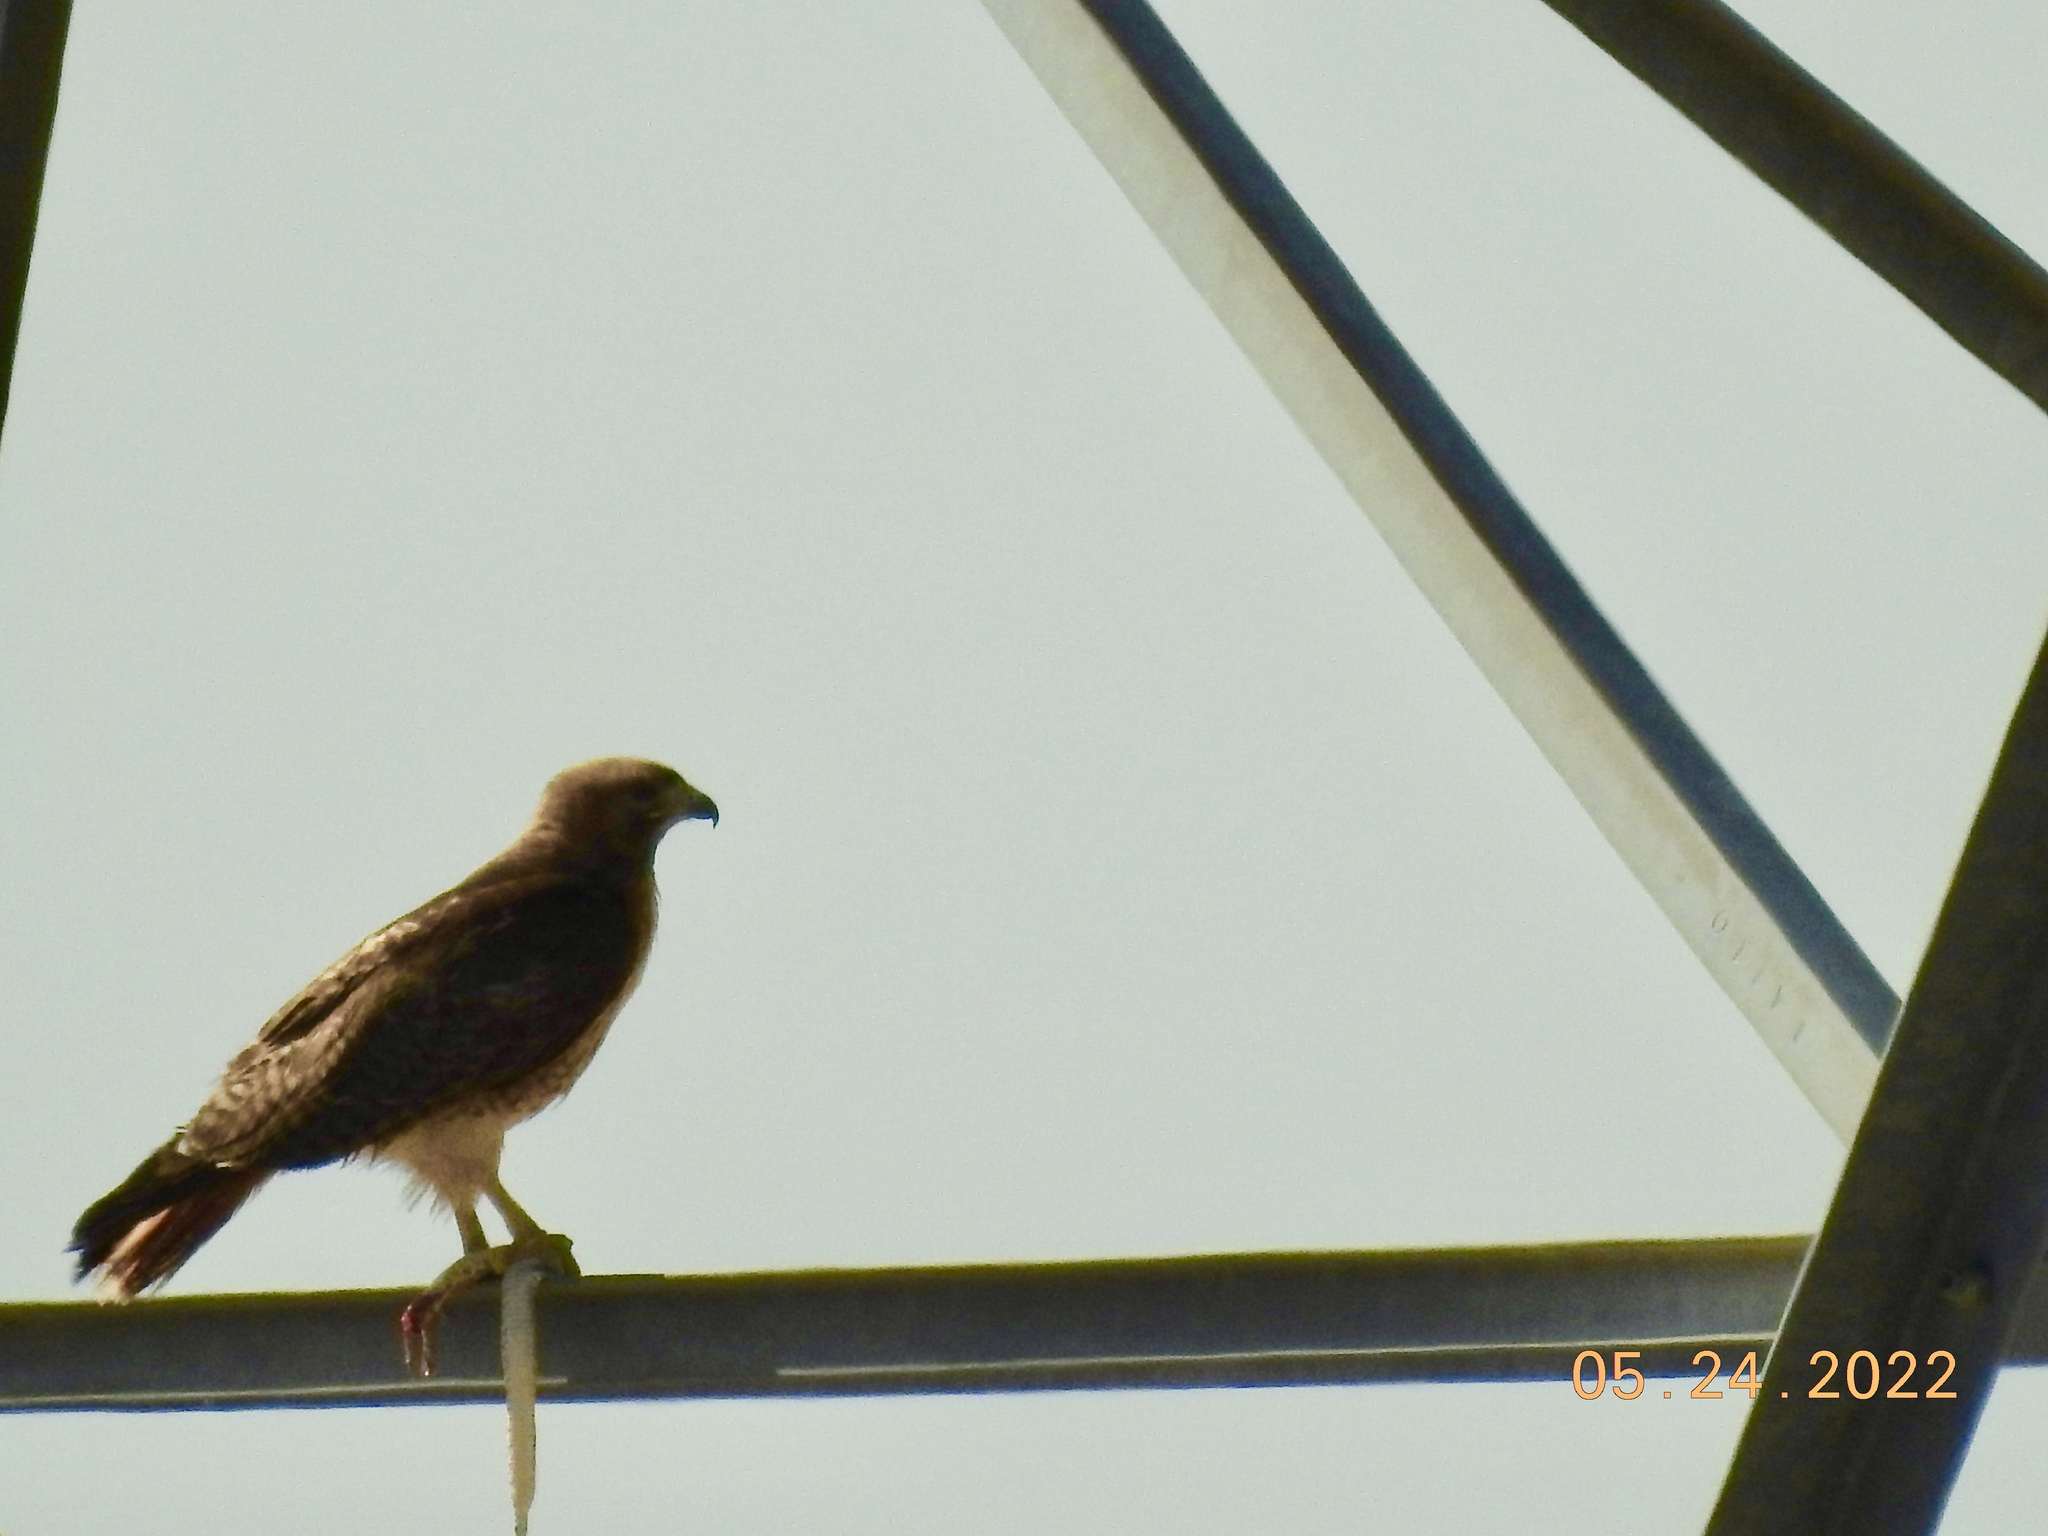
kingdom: Animalia
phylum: Chordata
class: Aves
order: Accipitriformes
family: Accipitridae
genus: Buteo
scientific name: Buteo jamaicensis
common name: Red-tailed hawk
